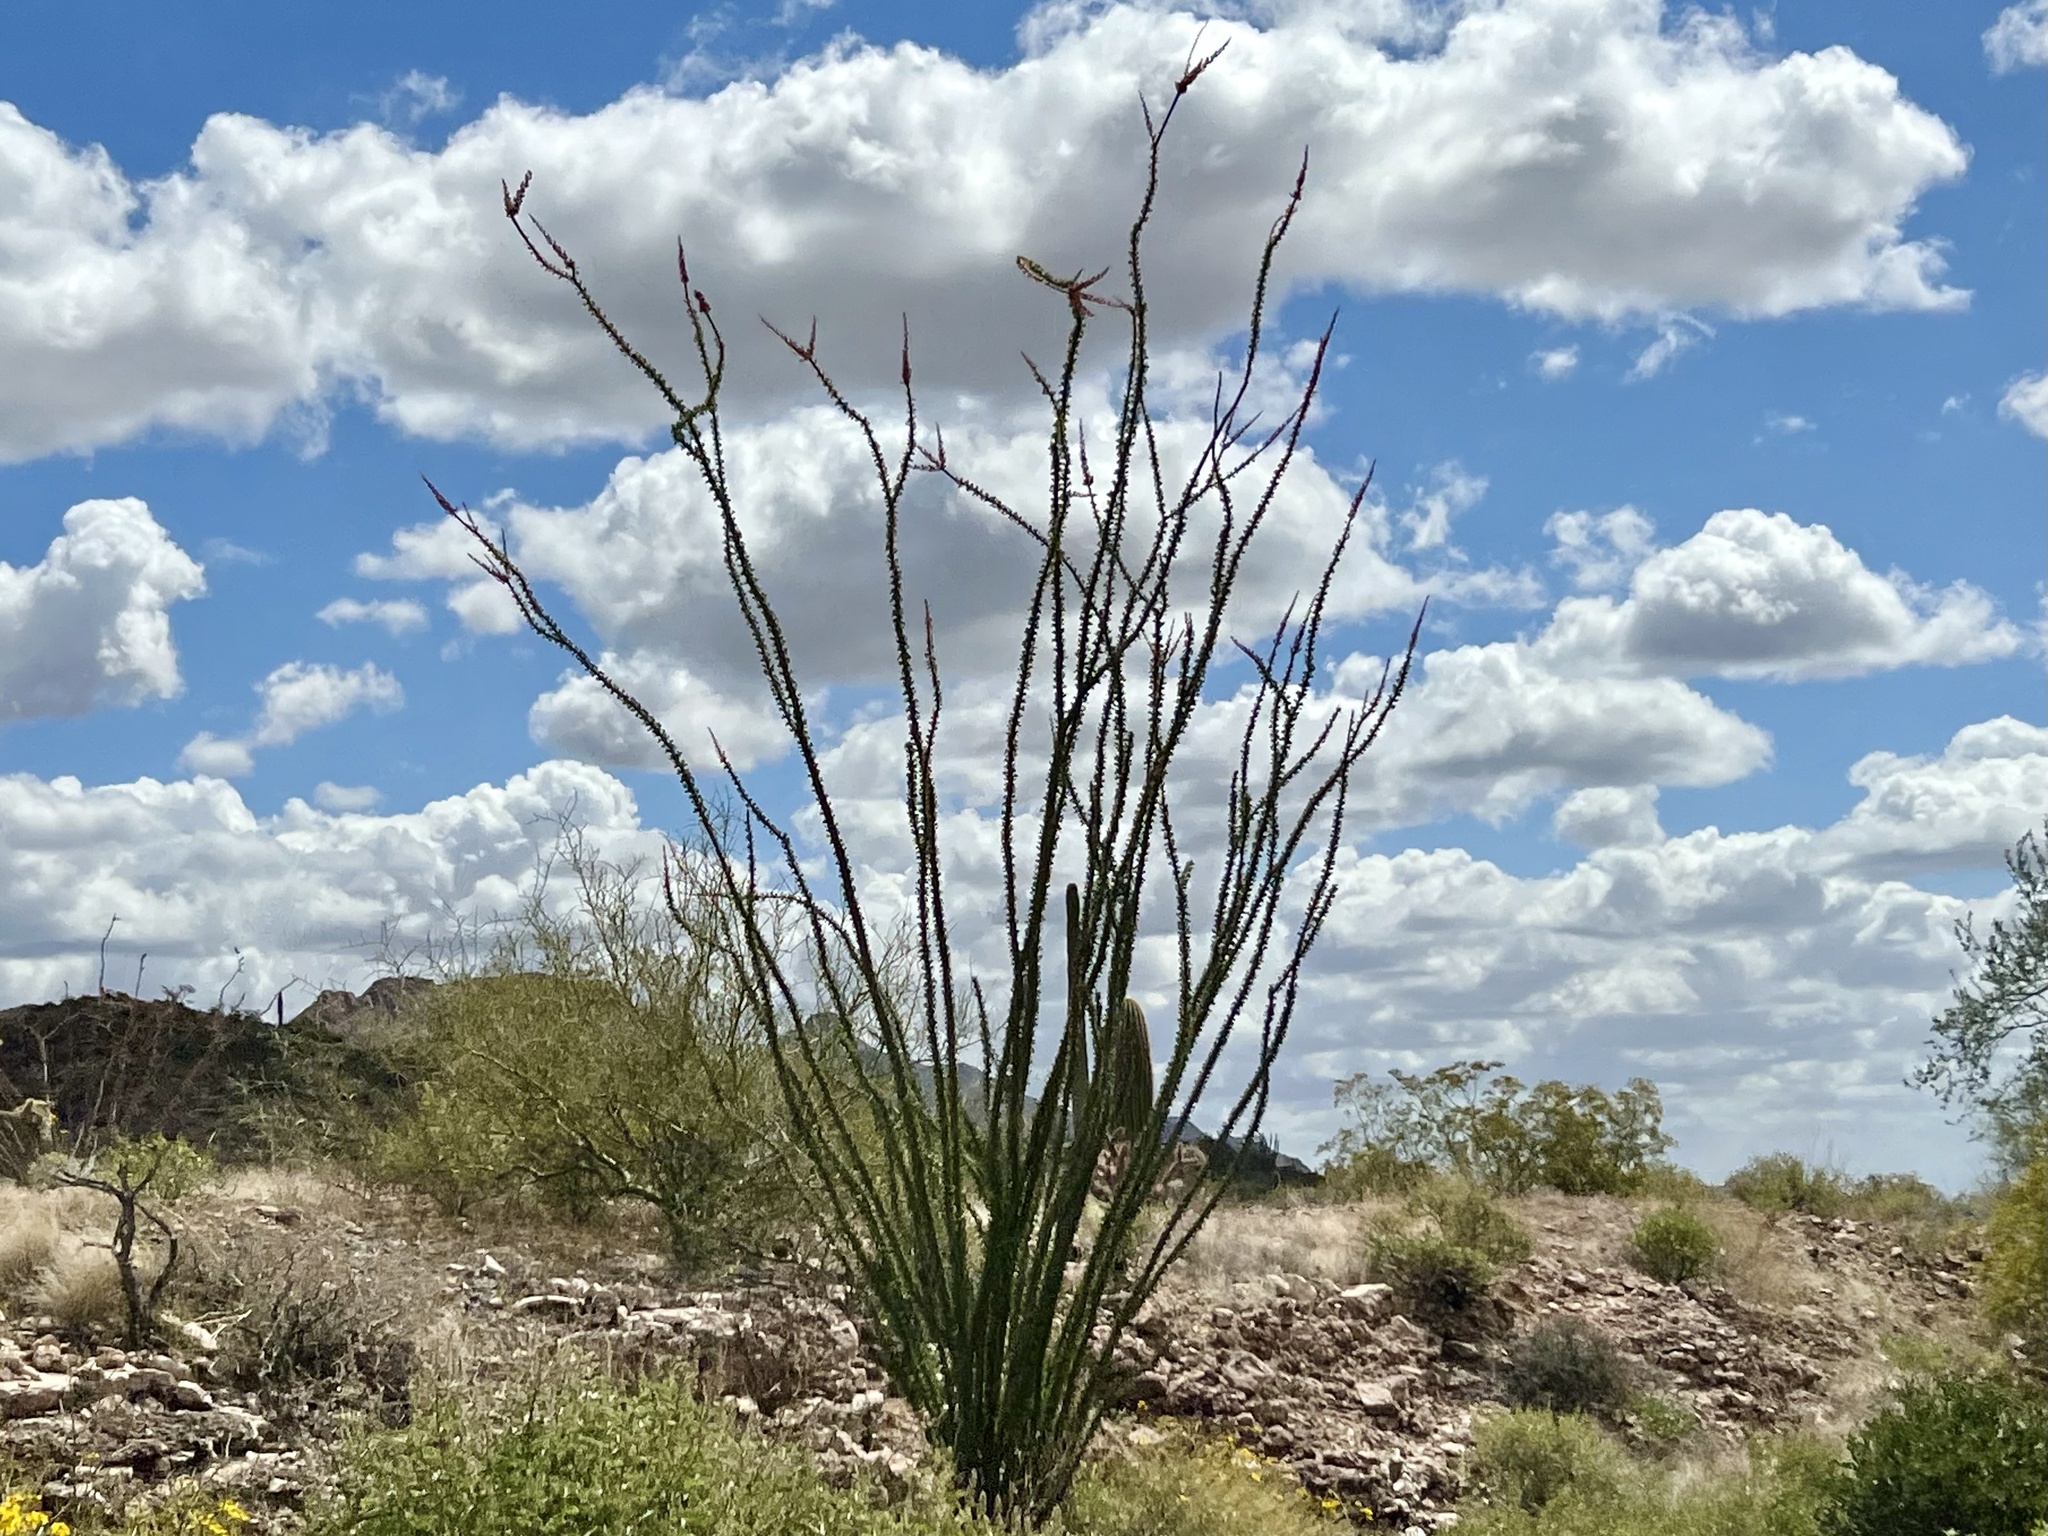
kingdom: Plantae
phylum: Tracheophyta
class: Magnoliopsida
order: Ericales
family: Fouquieriaceae
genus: Fouquieria
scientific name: Fouquieria splendens
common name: Vine-cactus
